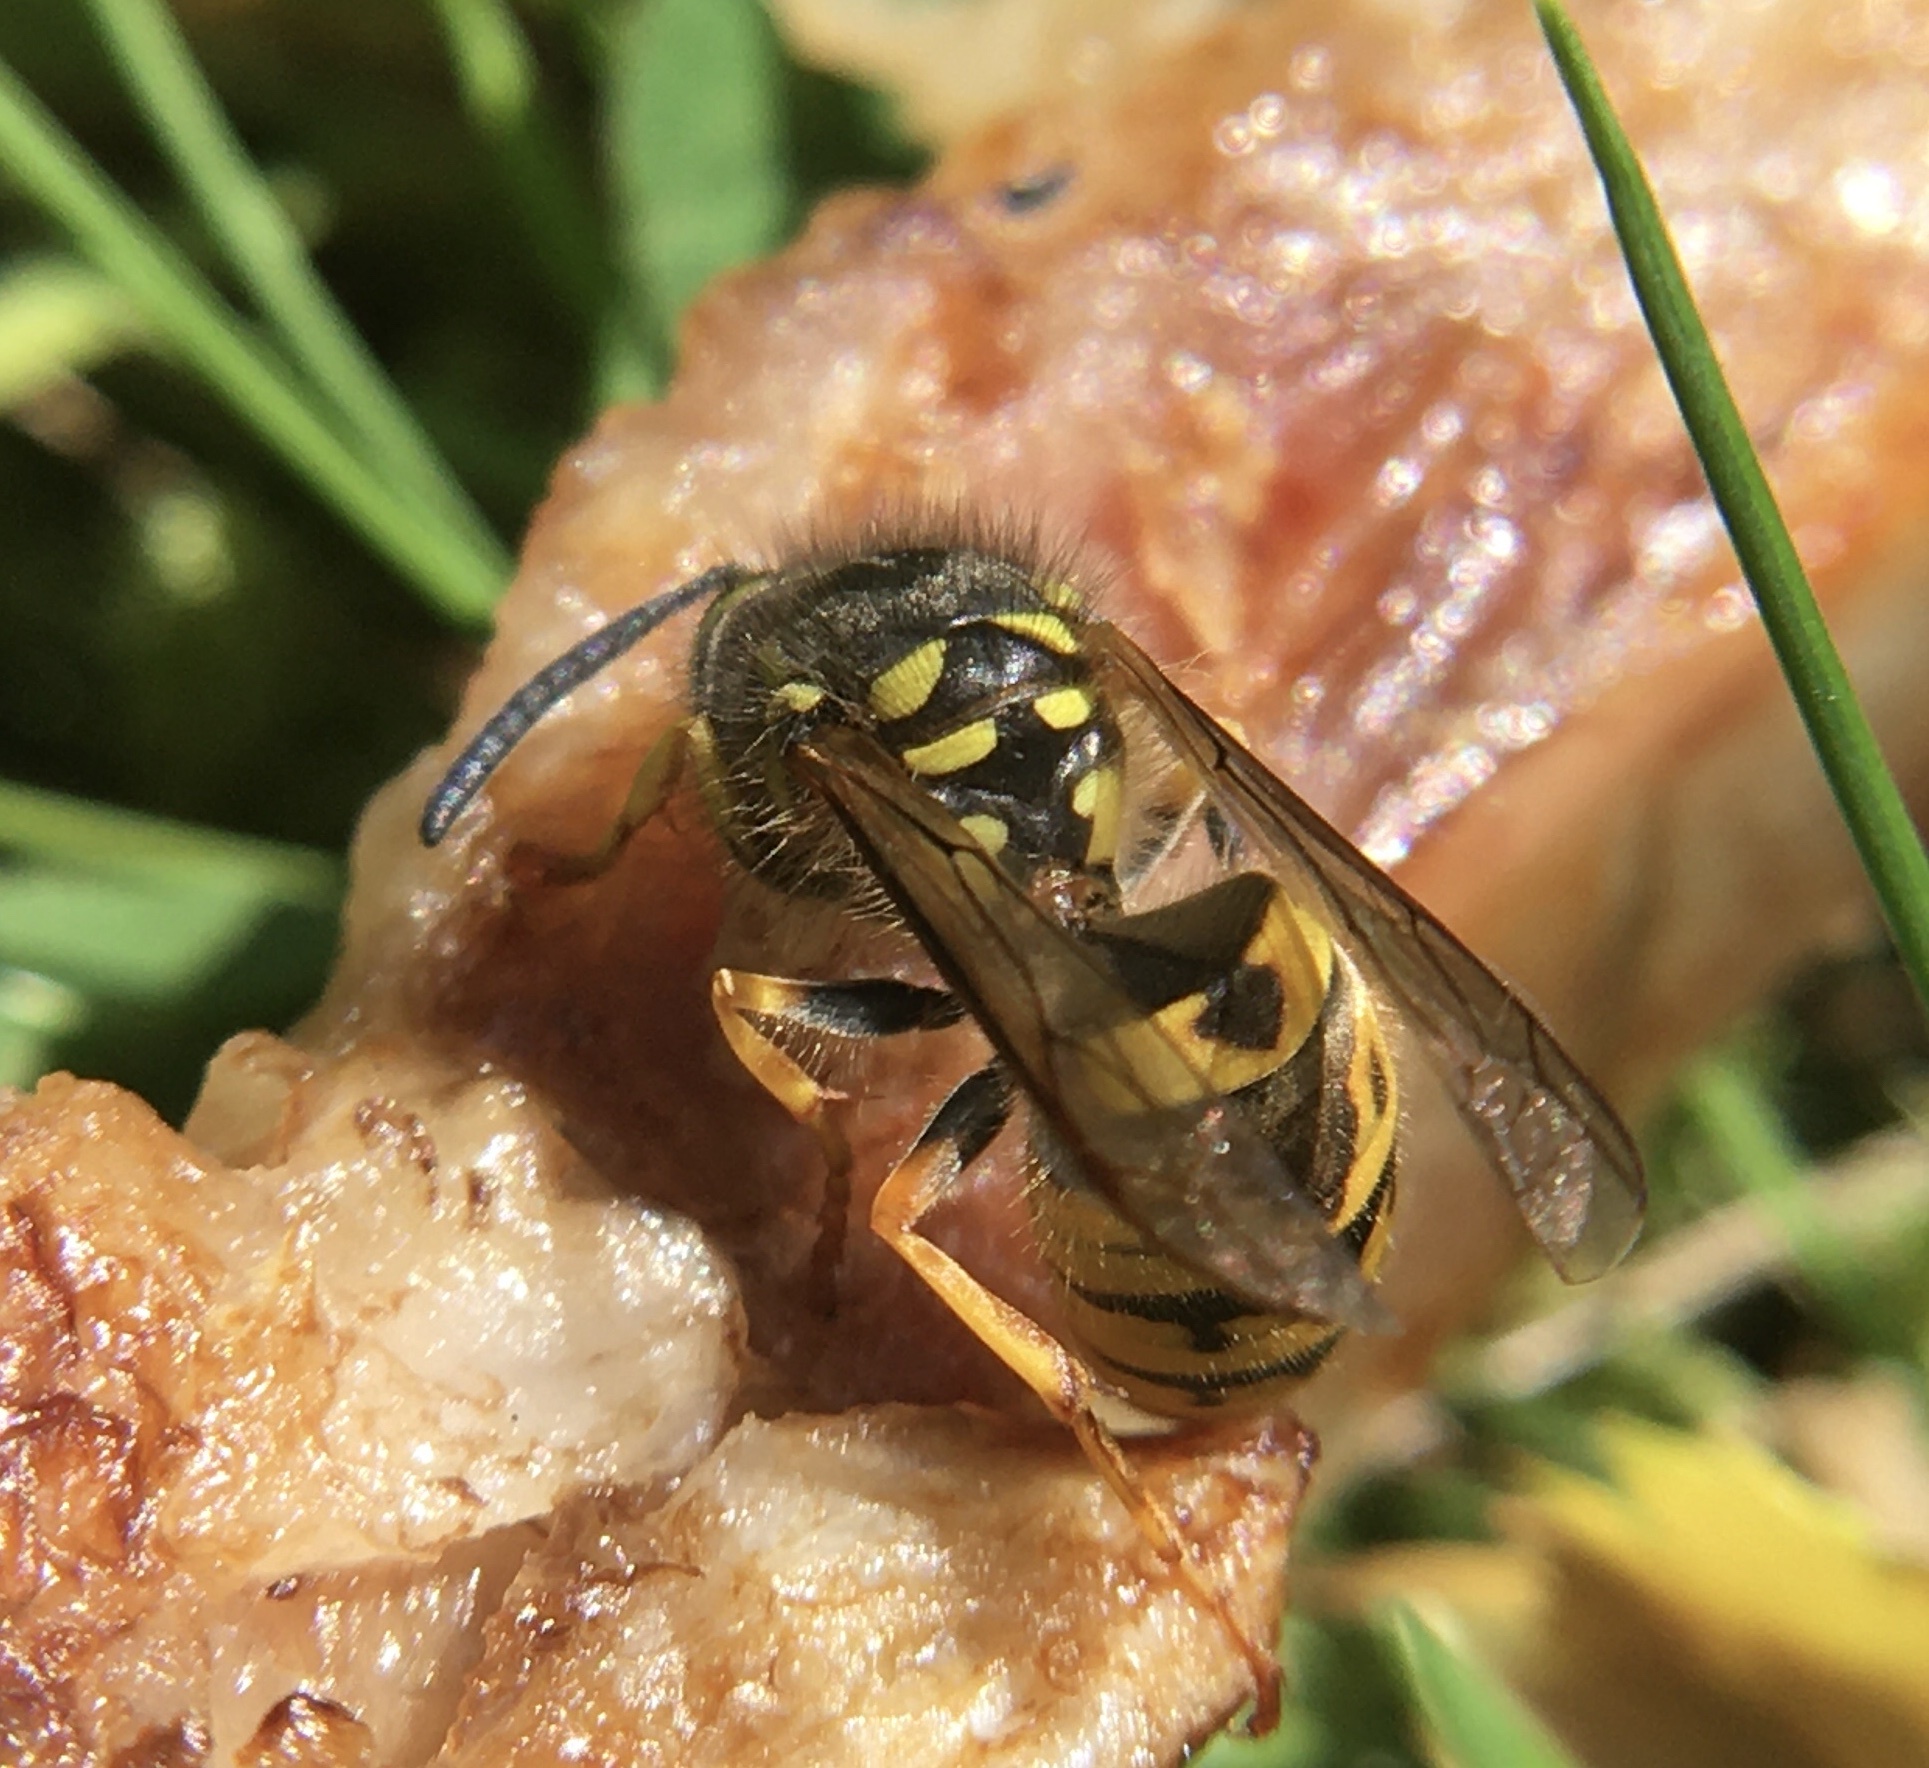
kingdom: Animalia
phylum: Arthropoda
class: Insecta
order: Hymenoptera
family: Vespidae
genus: Vespula
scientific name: Vespula germanica
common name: German wasp
